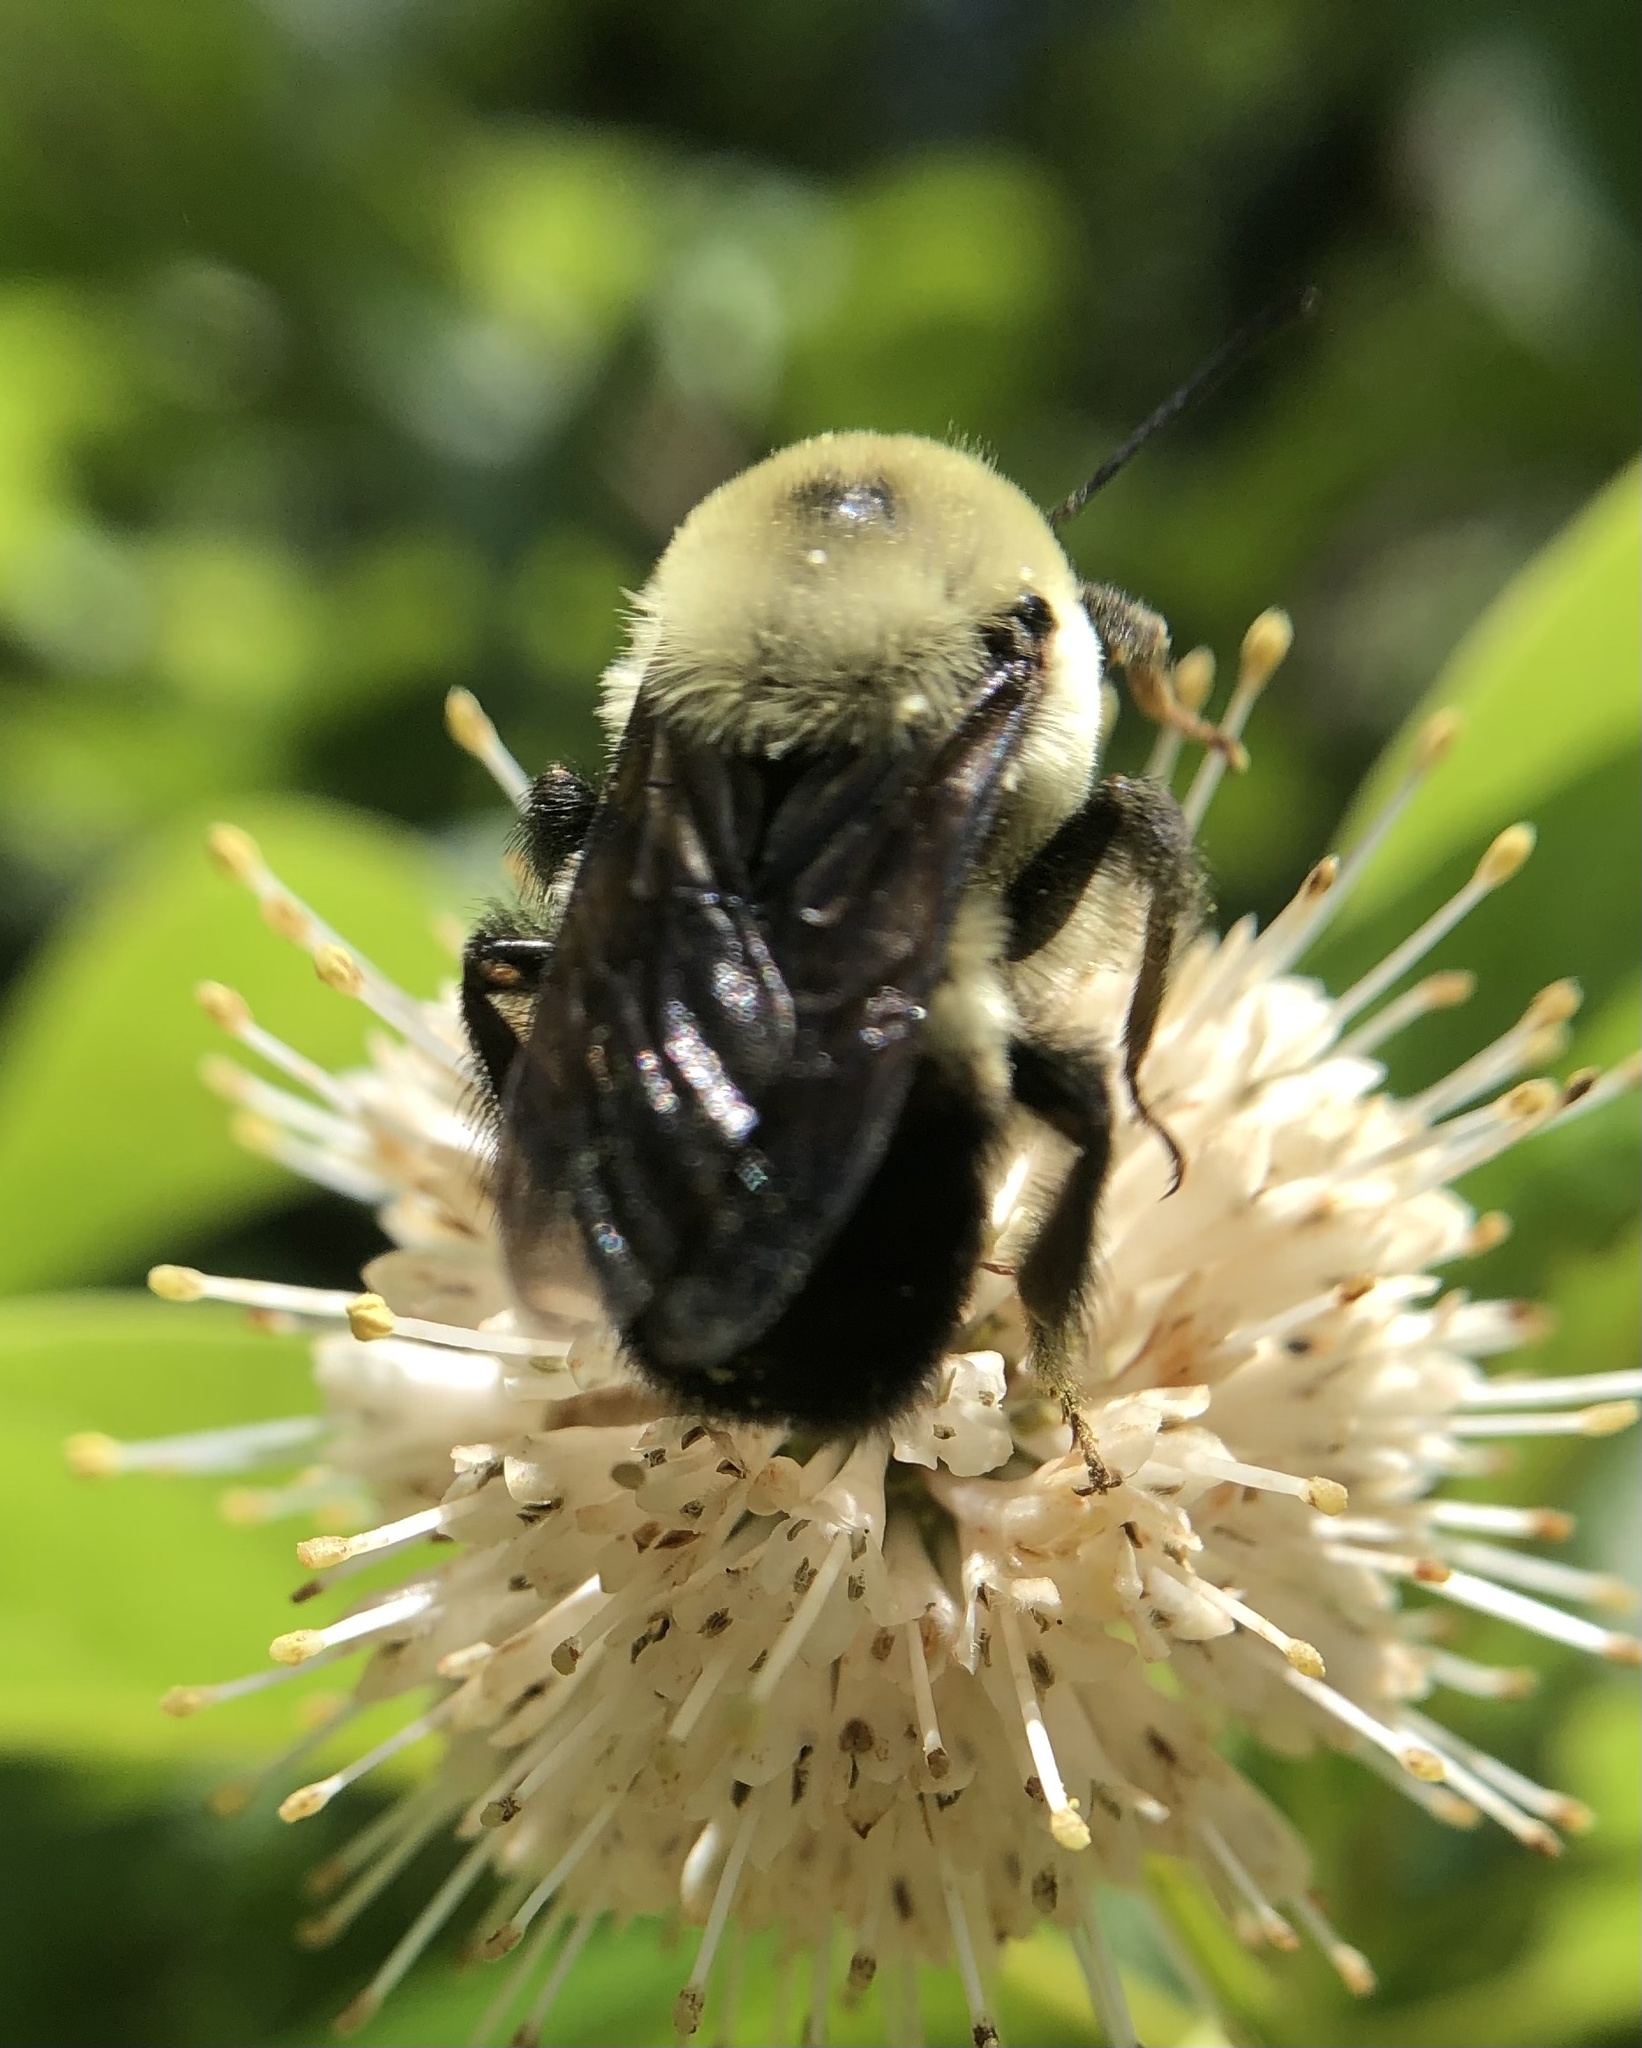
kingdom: Animalia
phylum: Arthropoda
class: Insecta
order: Hymenoptera
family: Apidae
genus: Bombus
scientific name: Bombus griseocollis
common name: Brown-belted bumble bee
